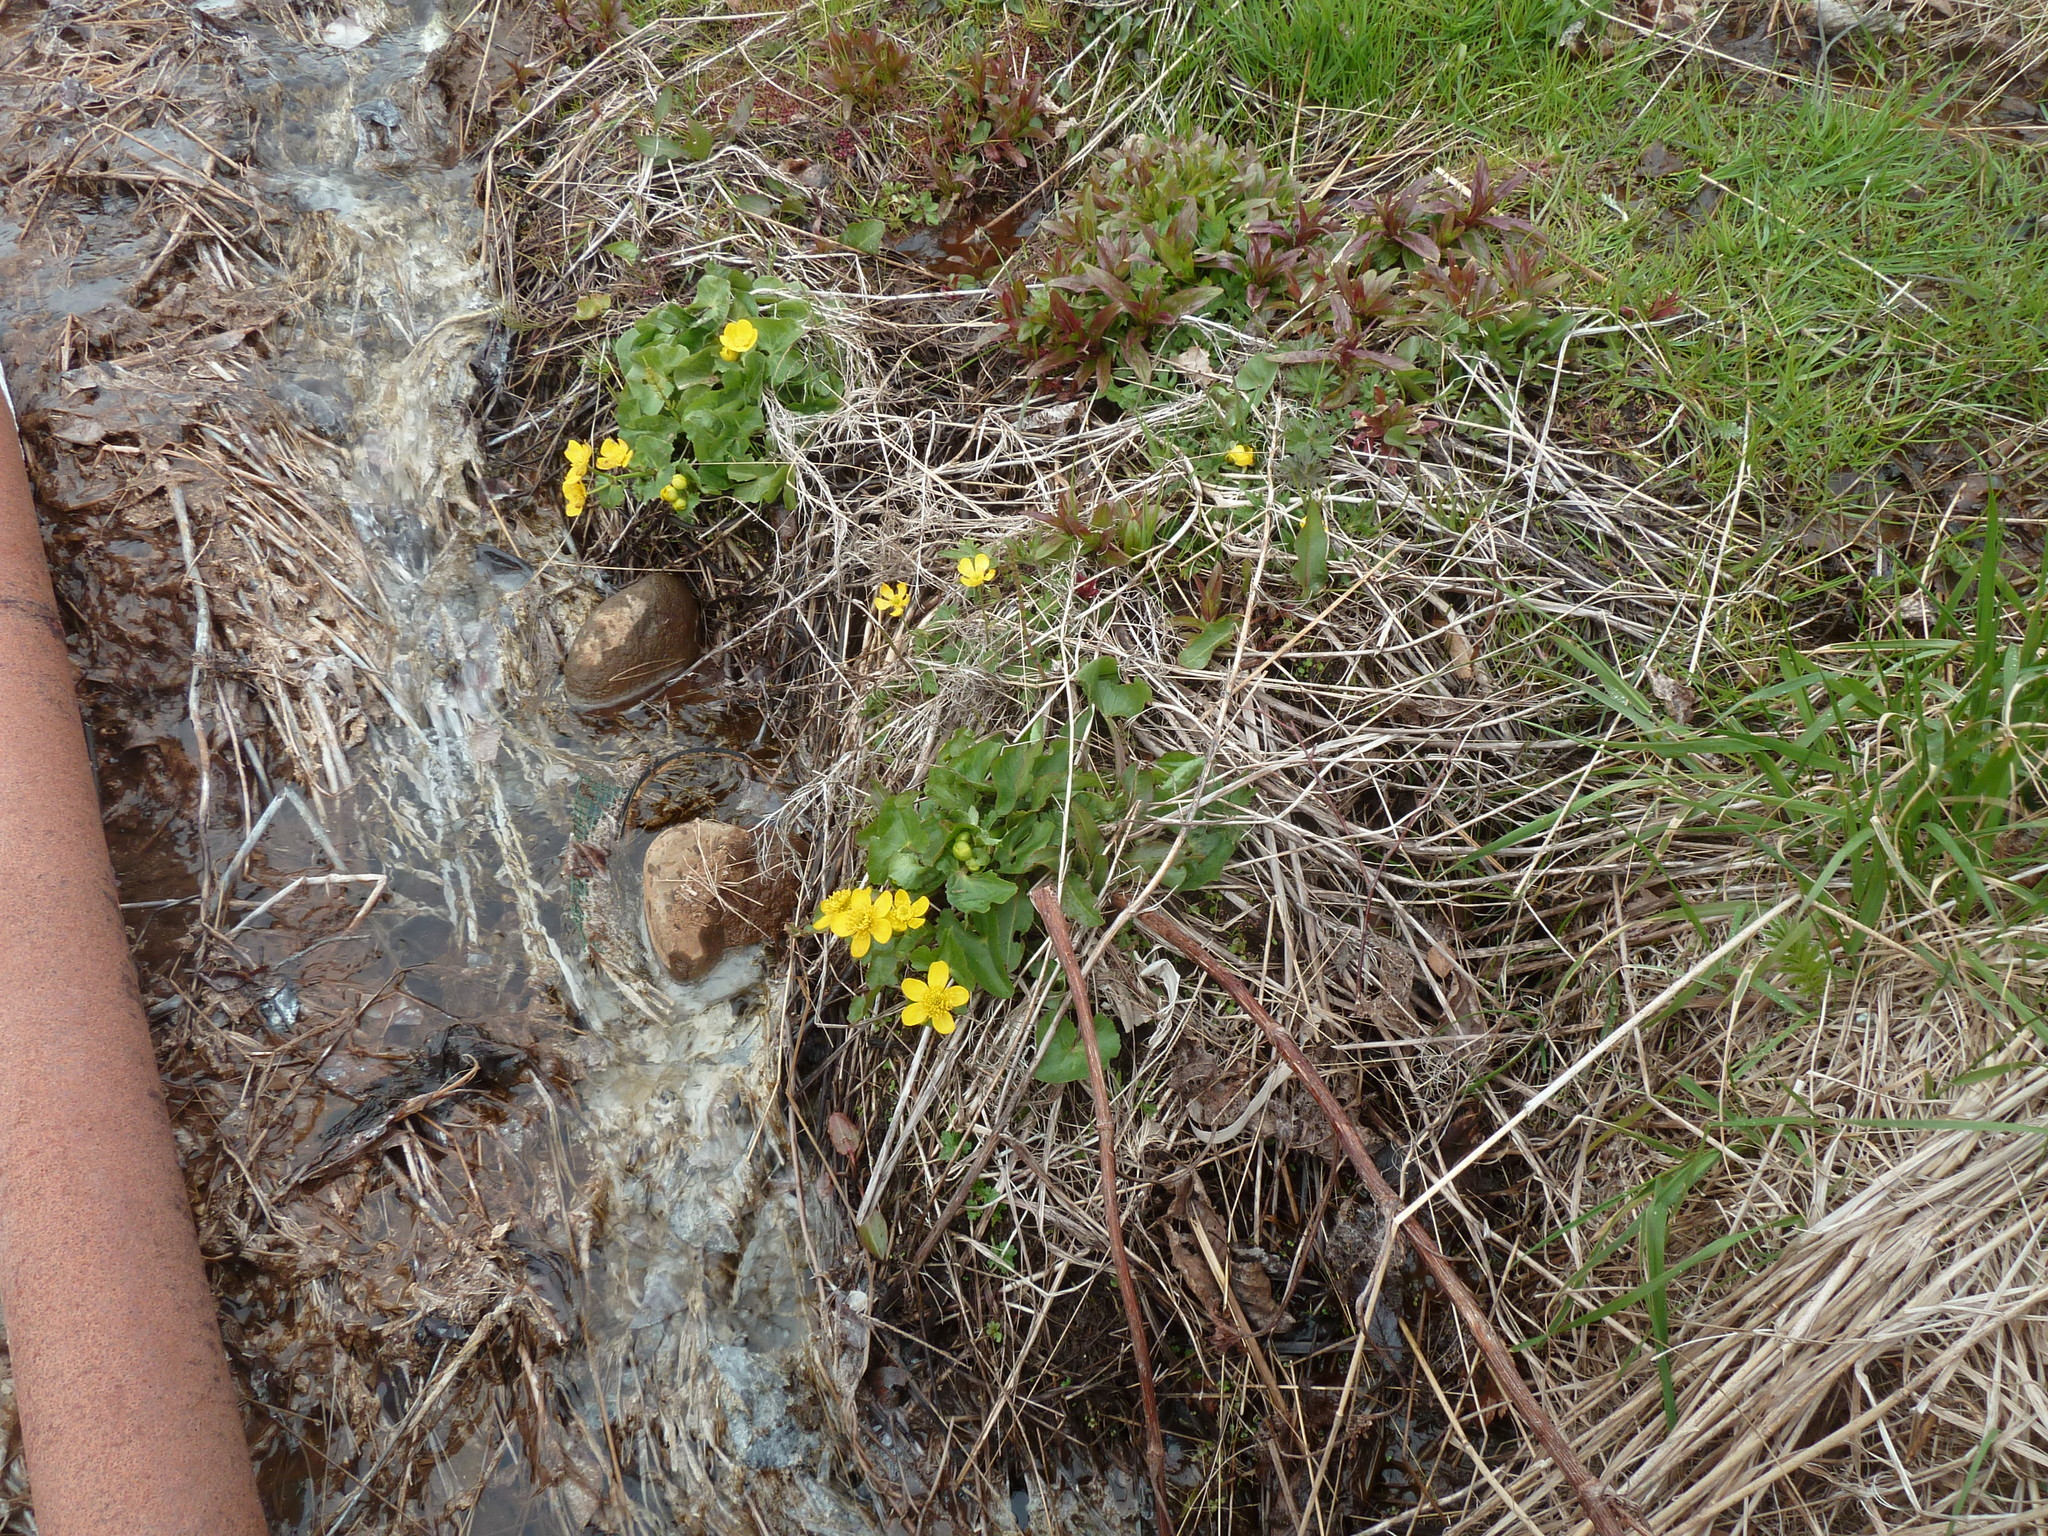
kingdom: Plantae
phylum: Tracheophyta
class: Magnoliopsida
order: Ranunculales
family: Ranunculaceae
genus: Caltha
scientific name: Caltha palustris
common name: Marsh marigold
